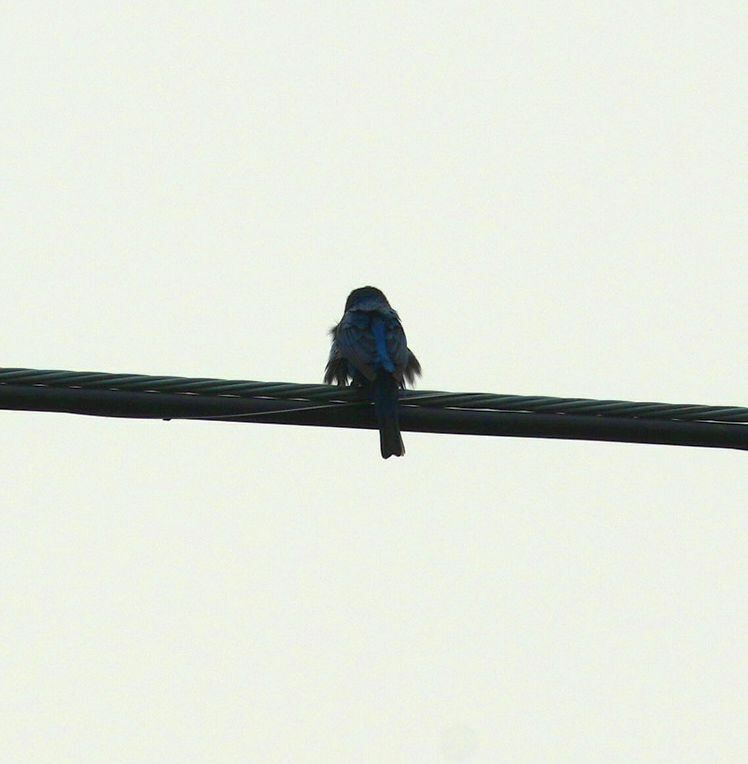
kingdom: Animalia
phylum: Chordata
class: Aves
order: Passeriformes
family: Cardinalidae
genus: Passerina
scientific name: Passerina cyanea
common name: Indigo bunting
